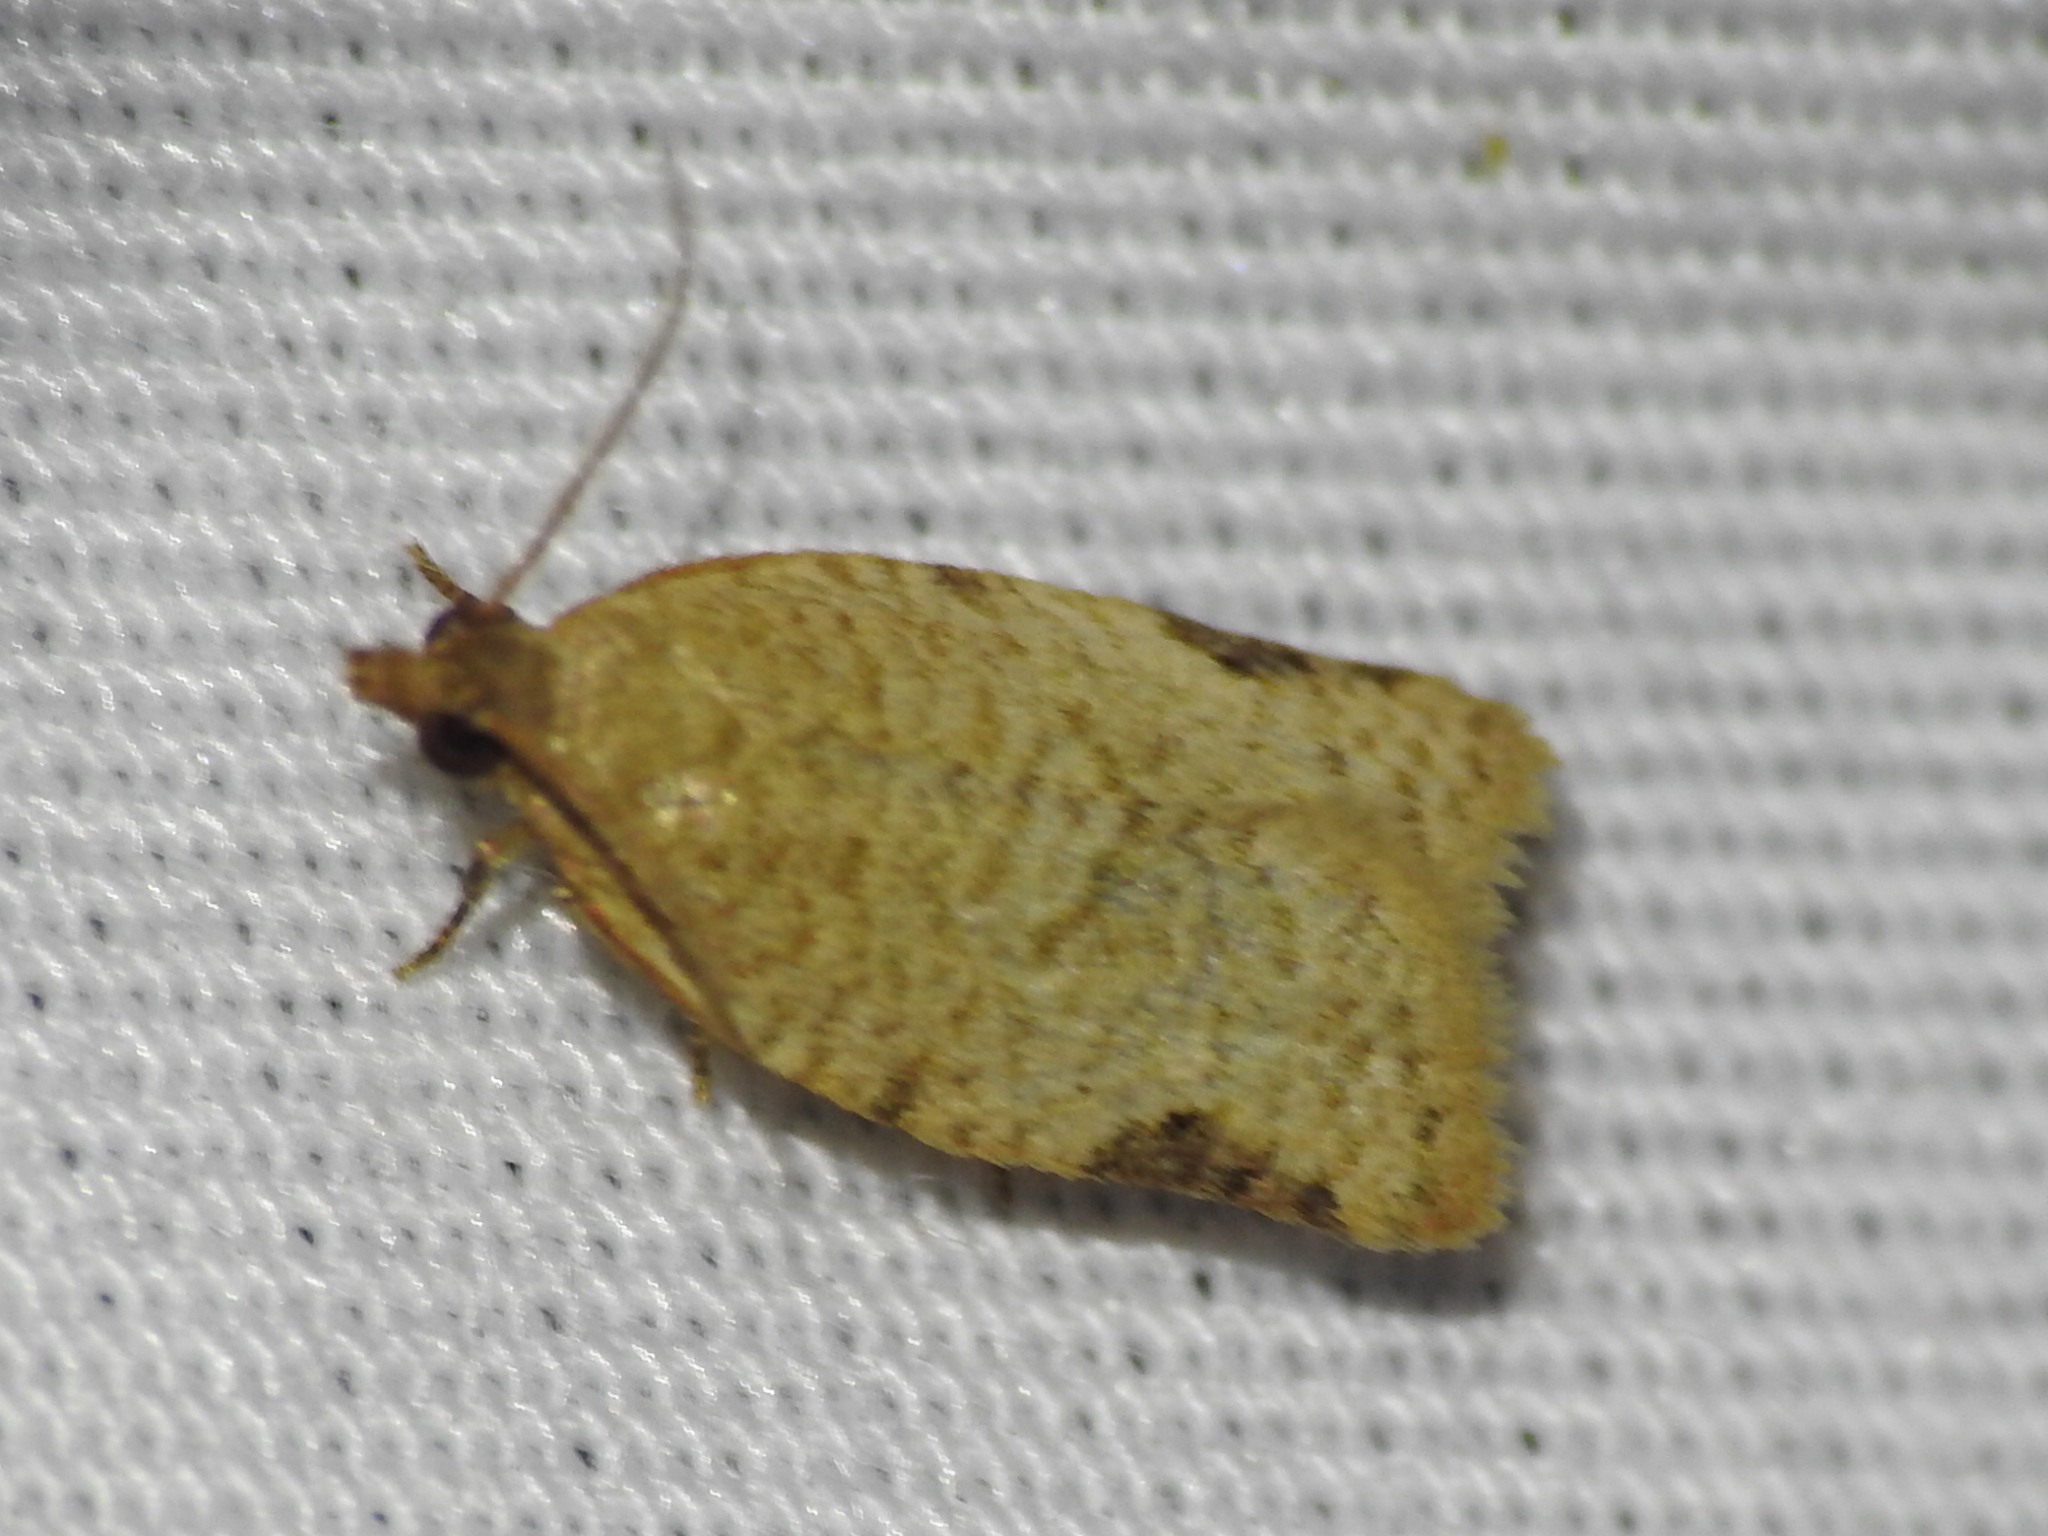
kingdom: Animalia
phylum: Arthropoda
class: Insecta
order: Lepidoptera
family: Tortricidae
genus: Clepsis
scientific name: Clepsis virescana
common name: Greenish apple moth
